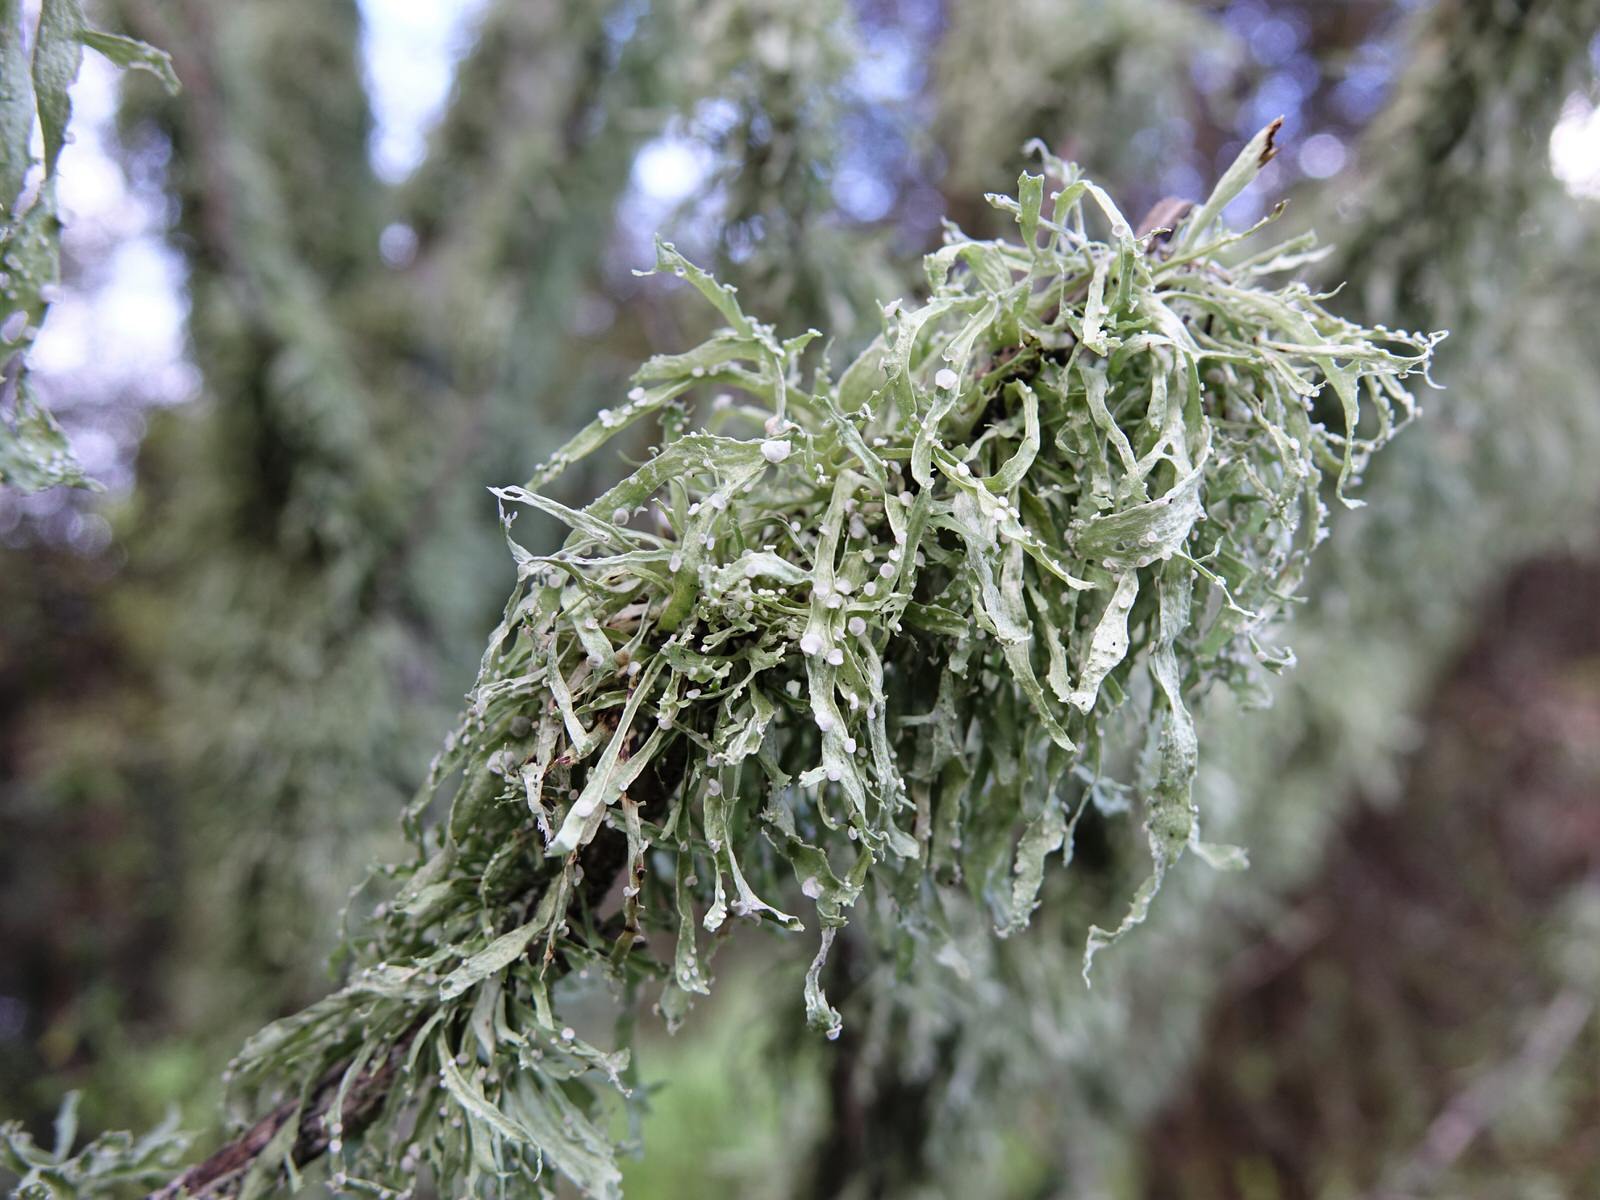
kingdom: Fungi
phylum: Ascomycota
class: Lecanoromycetes
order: Lecanorales
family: Ramalinaceae
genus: Ramalina
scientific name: Ramalina celastri
